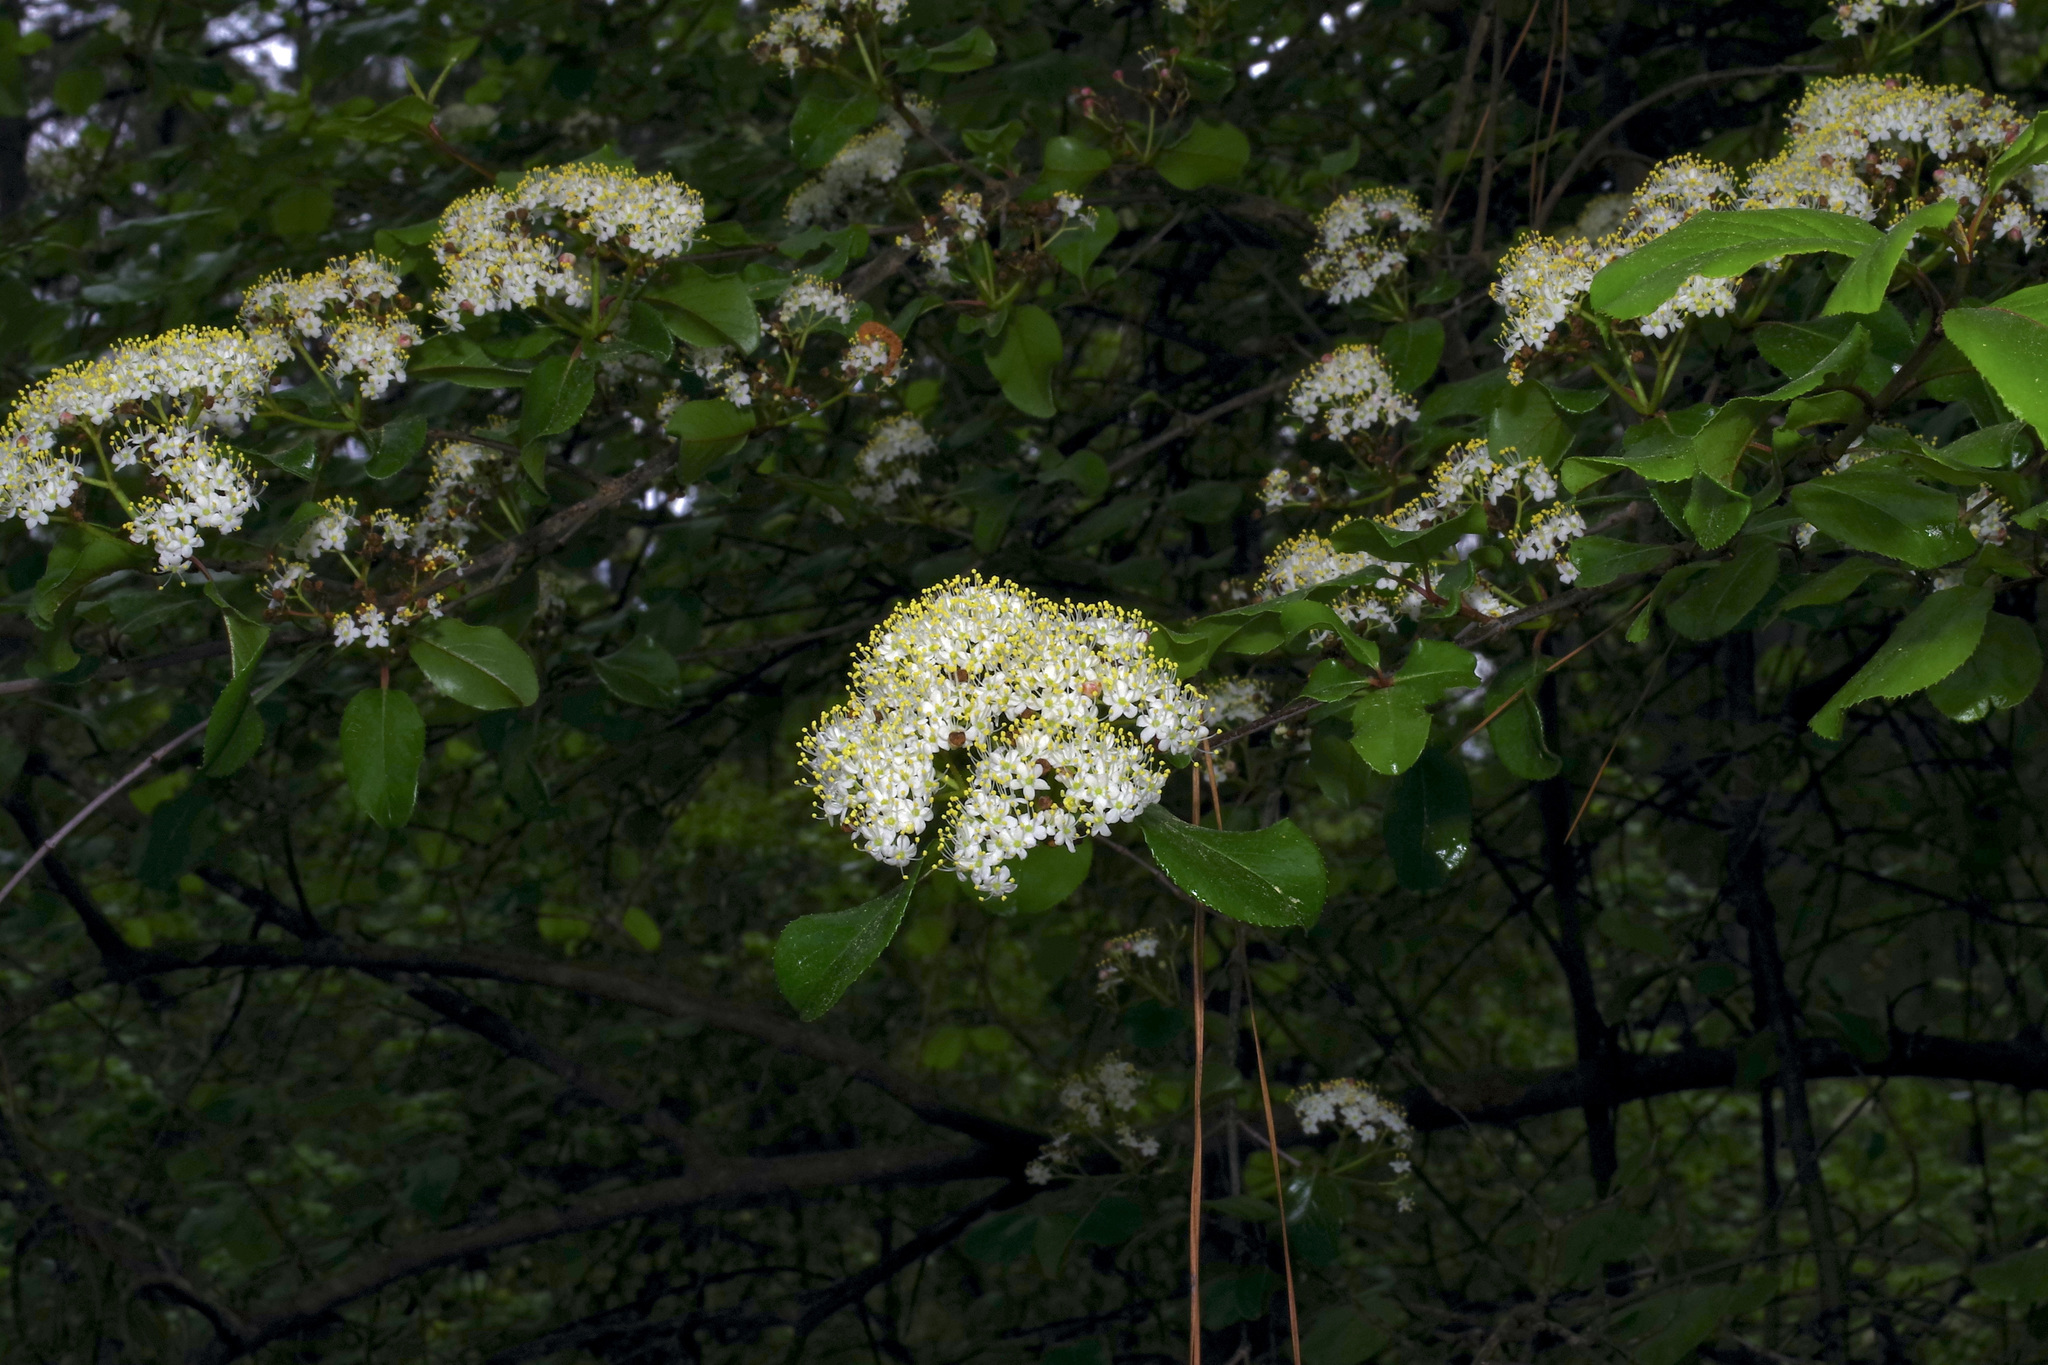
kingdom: Plantae
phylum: Tracheophyta
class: Magnoliopsida
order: Dipsacales
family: Viburnaceae
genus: Viburnum
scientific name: Viburnum rufidulum
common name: Blue haw
